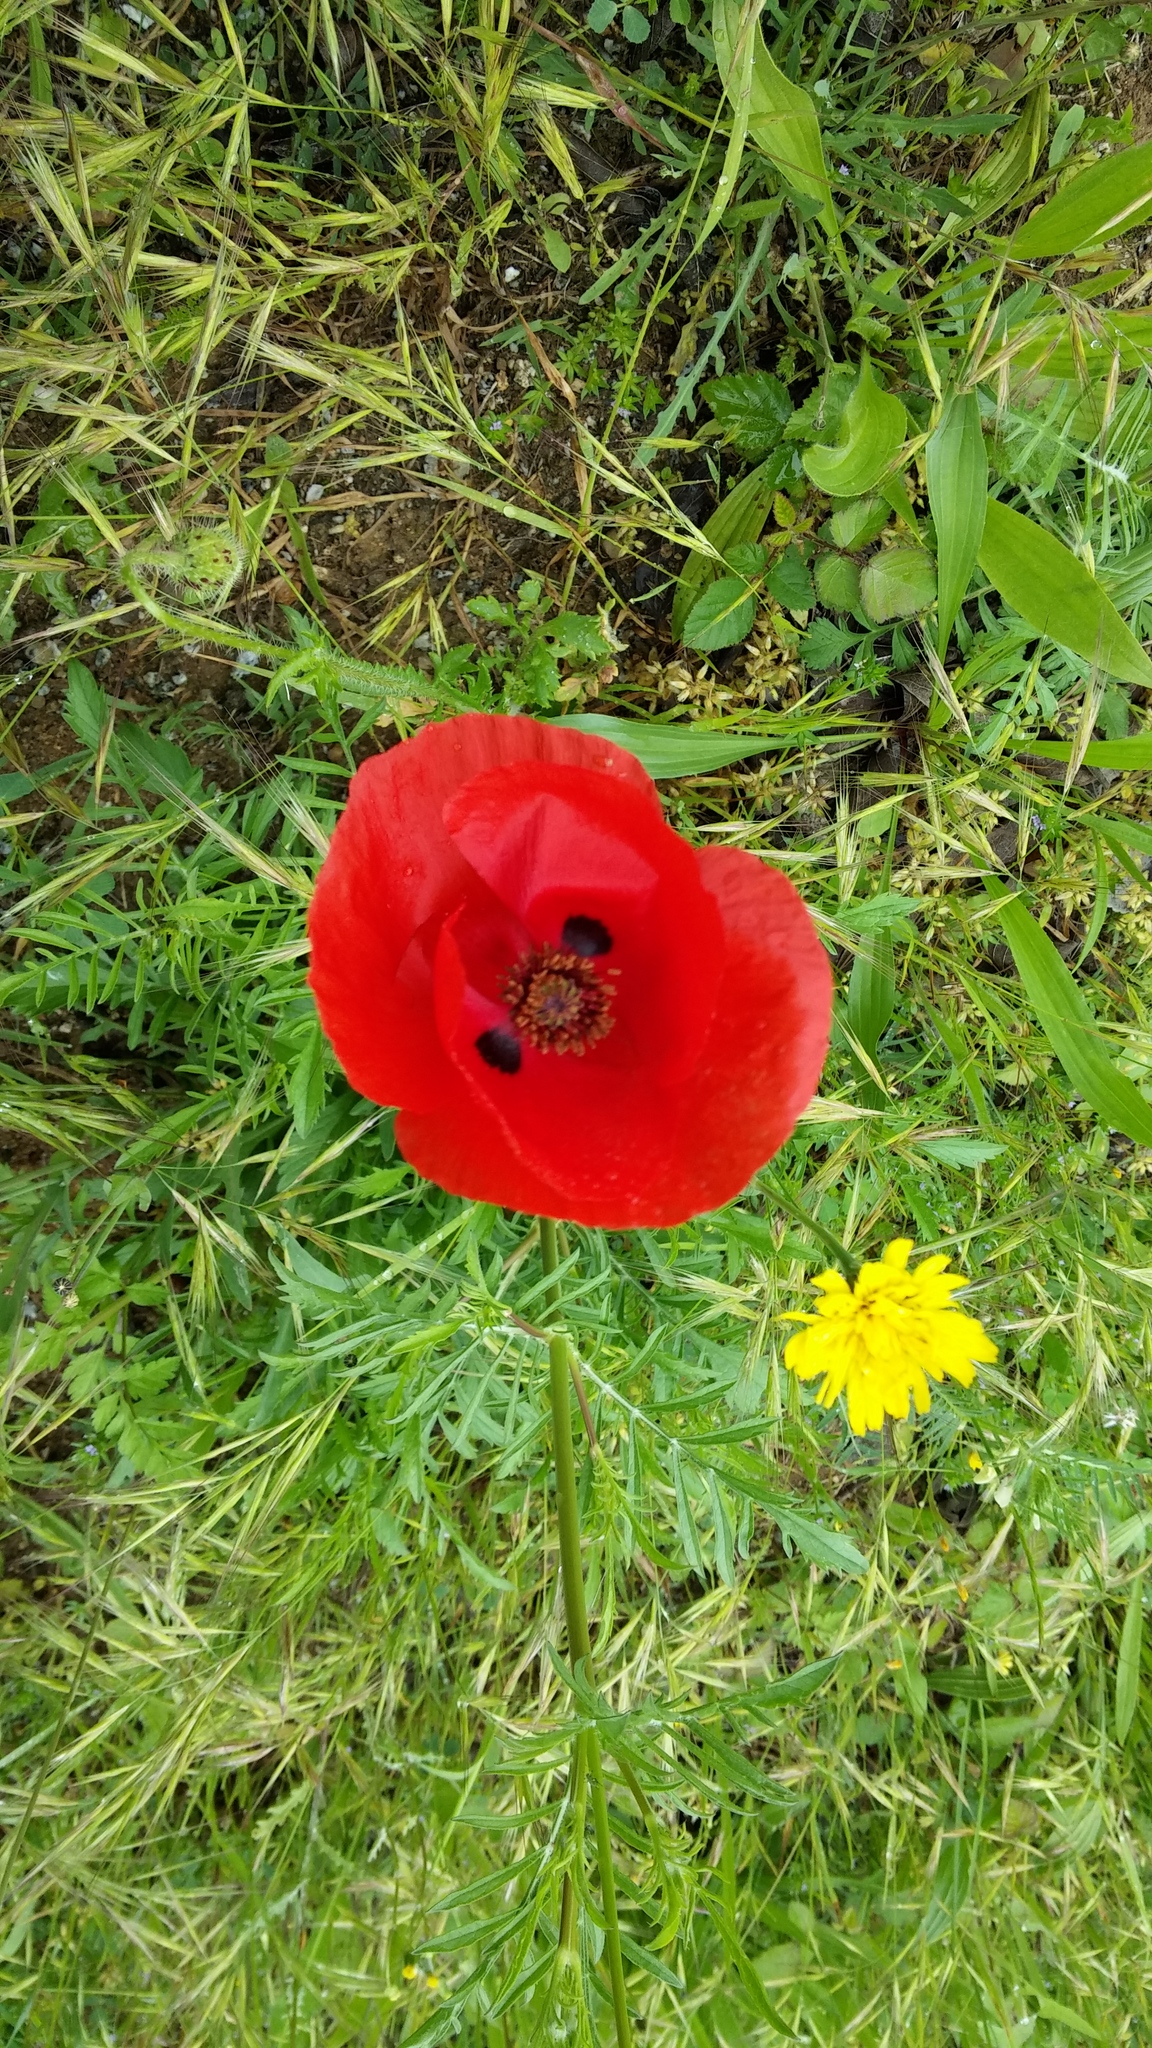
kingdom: Plantae
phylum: Tracheophyta
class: Magnoliopsida
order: Ranunculales
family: Papaveraceae
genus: Papaver
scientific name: Papaver rhoeas
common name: Corn poppy
